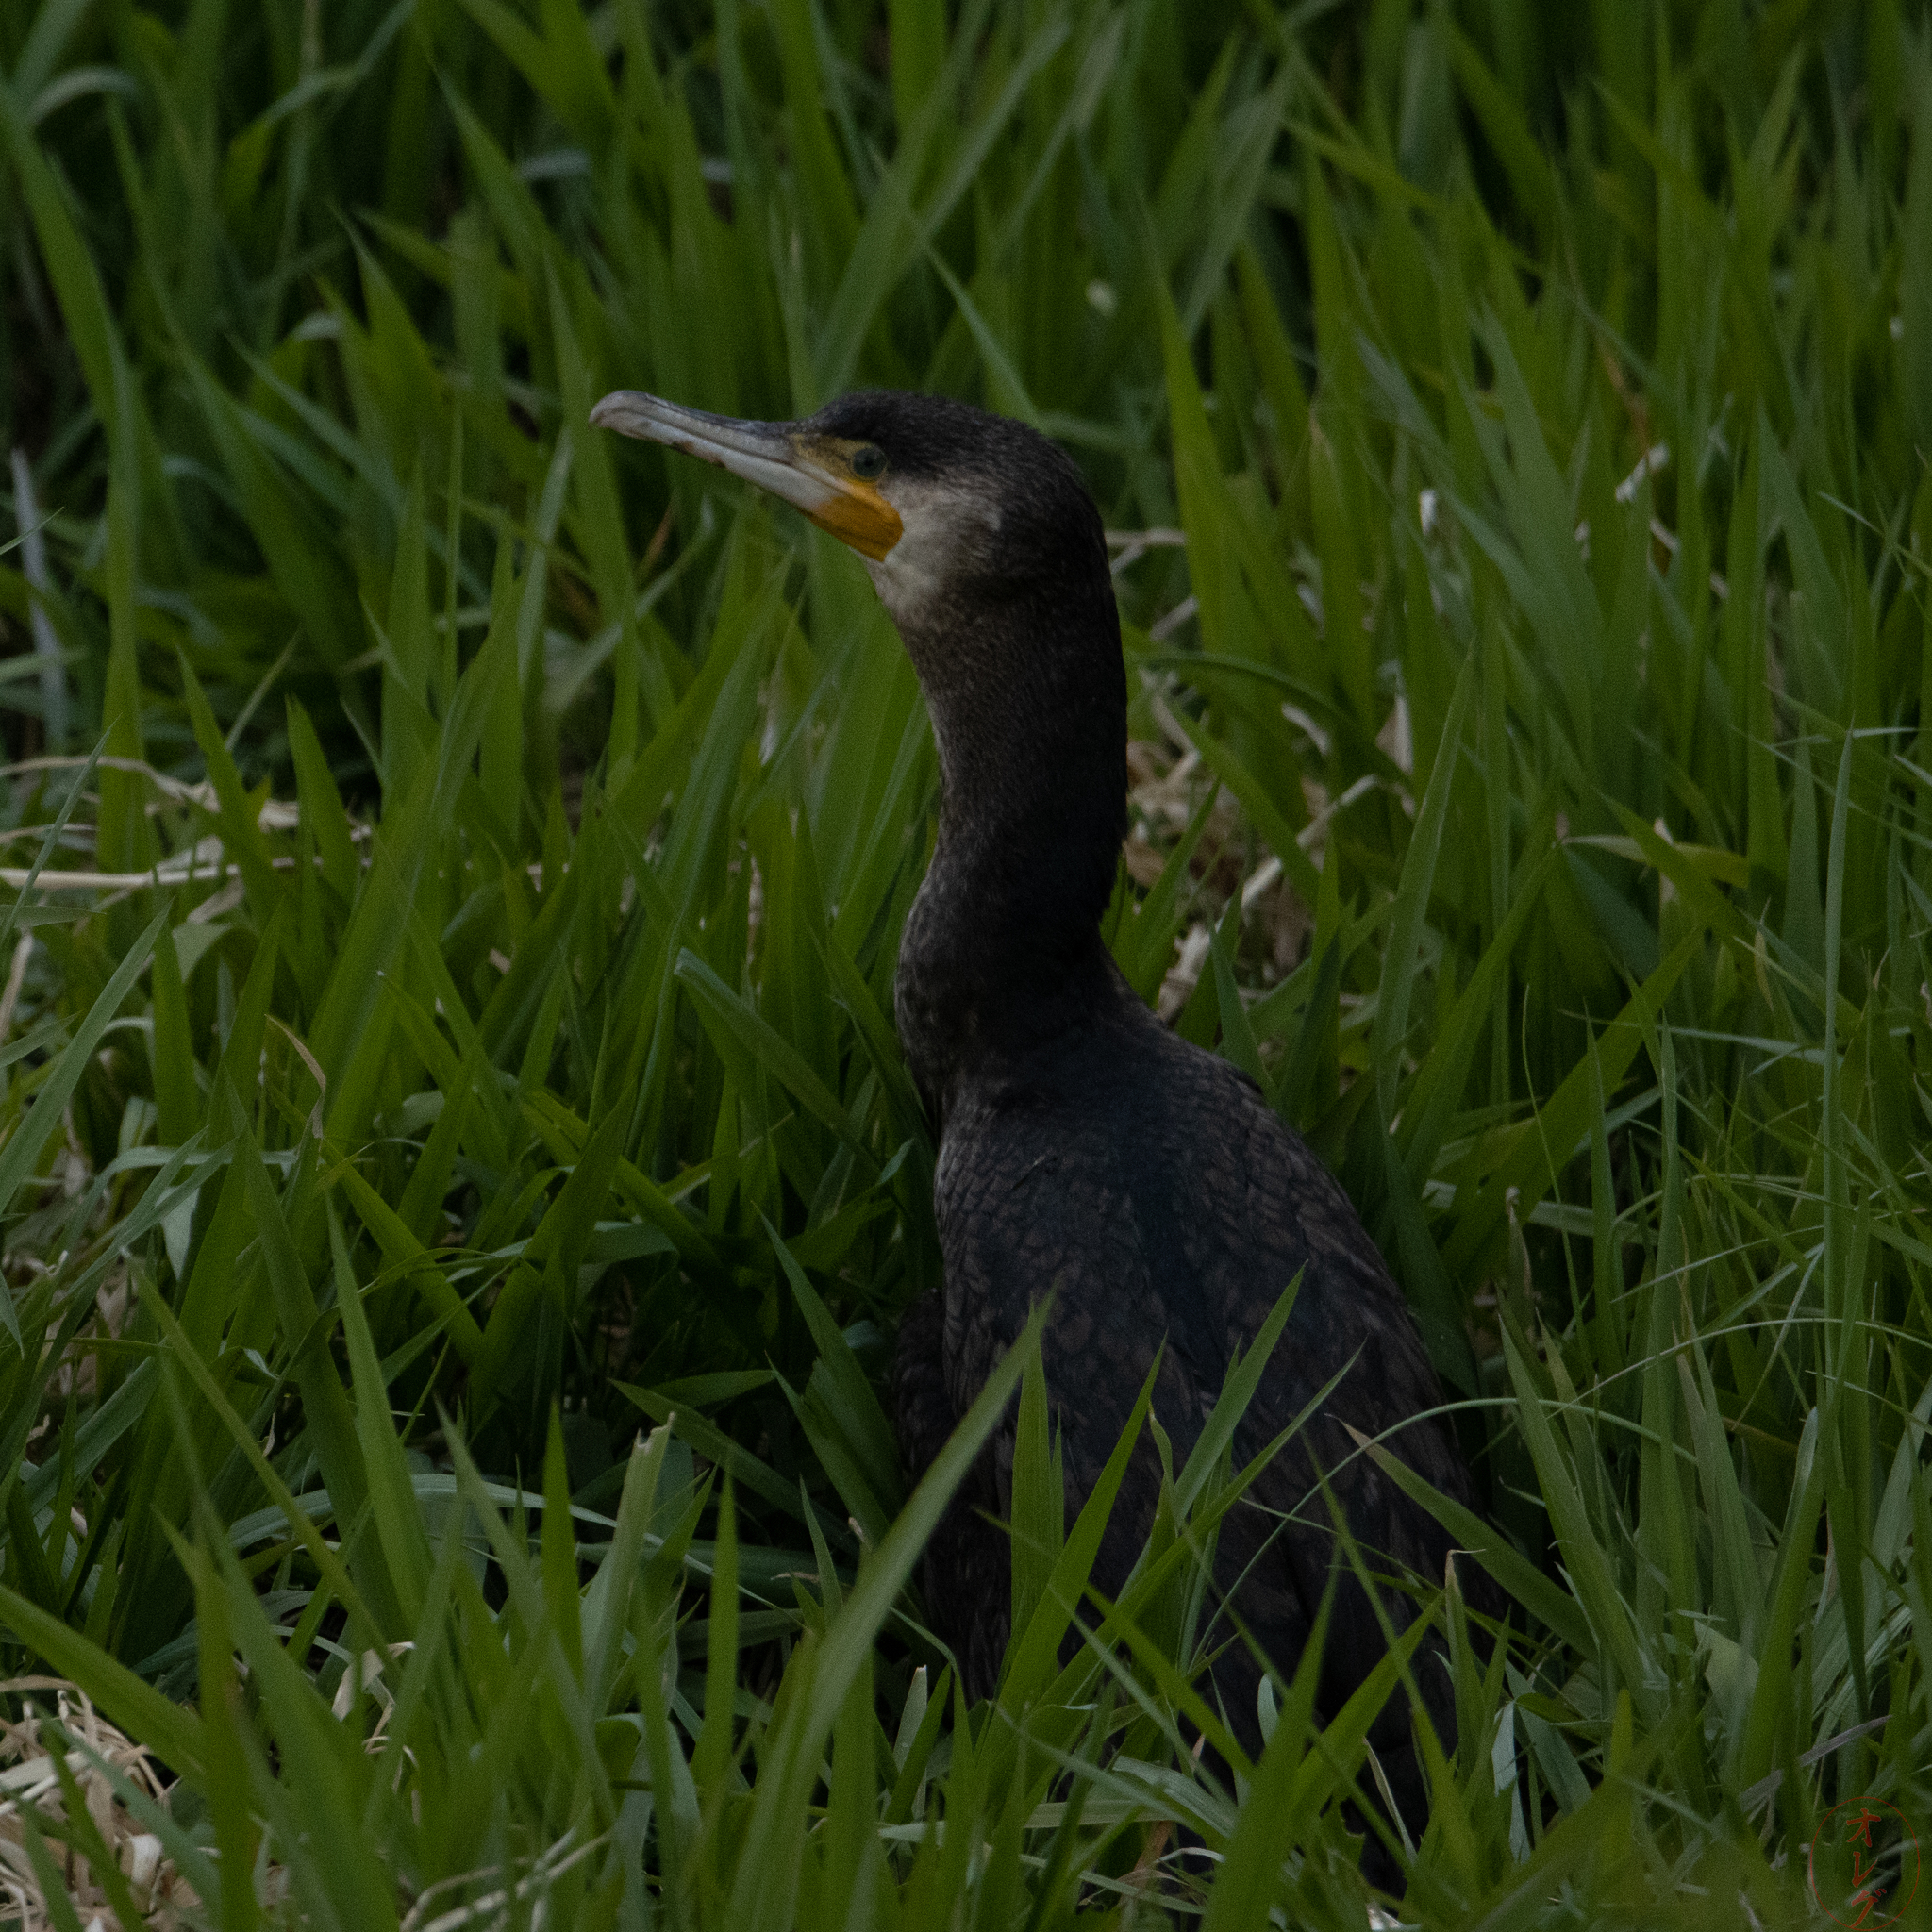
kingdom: Animalia
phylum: Chordata
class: Aves
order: Suliformes
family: Phalacrocoracidae
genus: Phalacrocorax
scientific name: Phalacrocorax carbo
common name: Great cormorant
